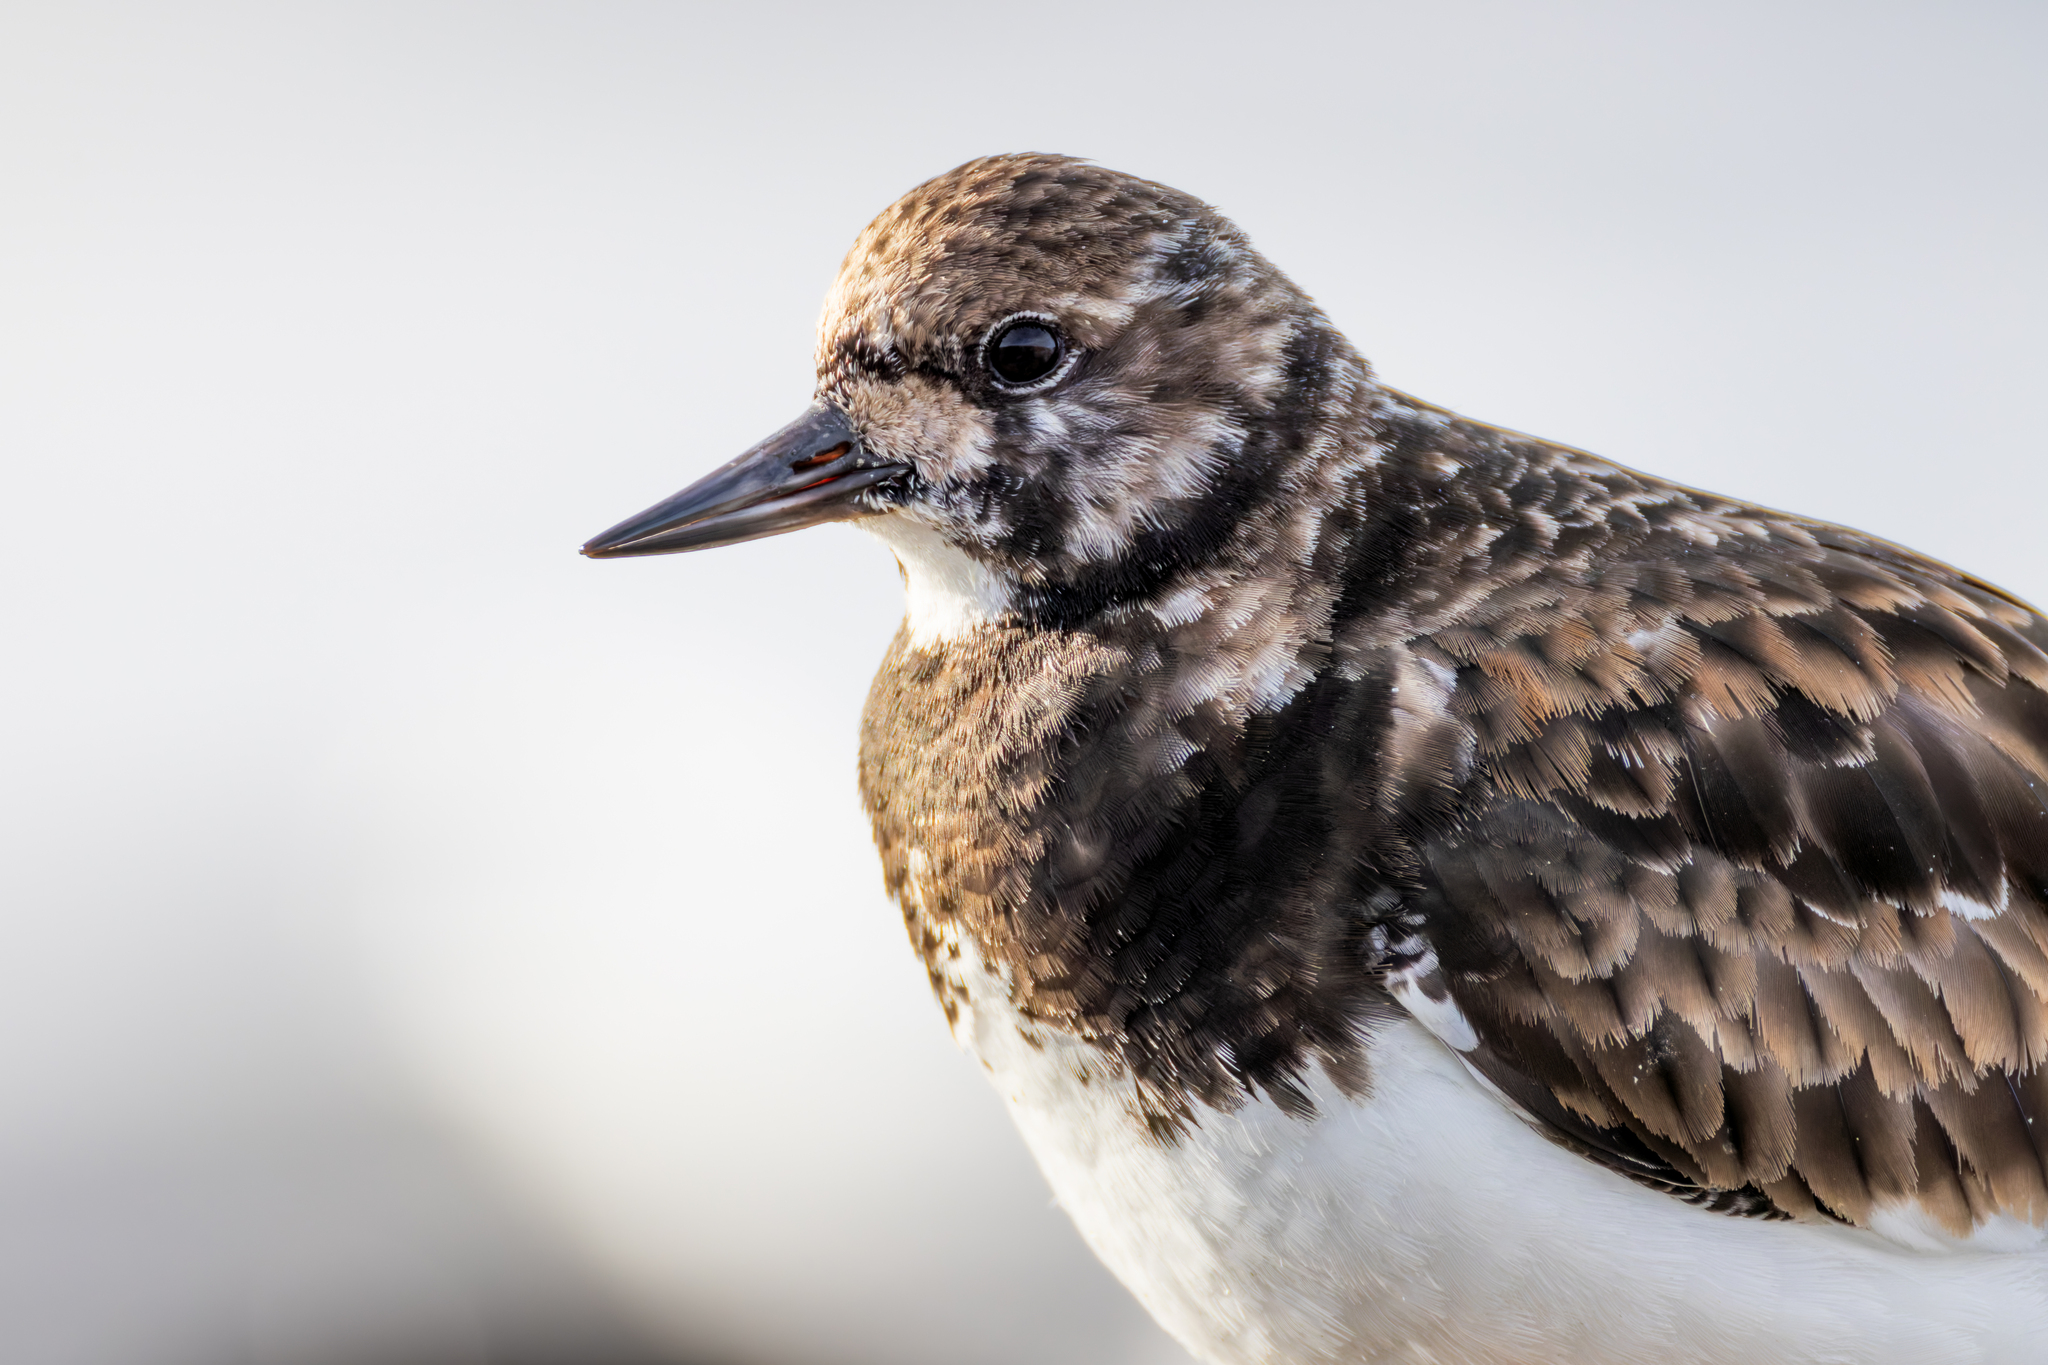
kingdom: Animalia
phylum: Chordata
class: Aves
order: Charadriiformes
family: Scolopacidae
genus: Arenaria
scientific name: Arenaria interpres
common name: Ruddy turnstone
